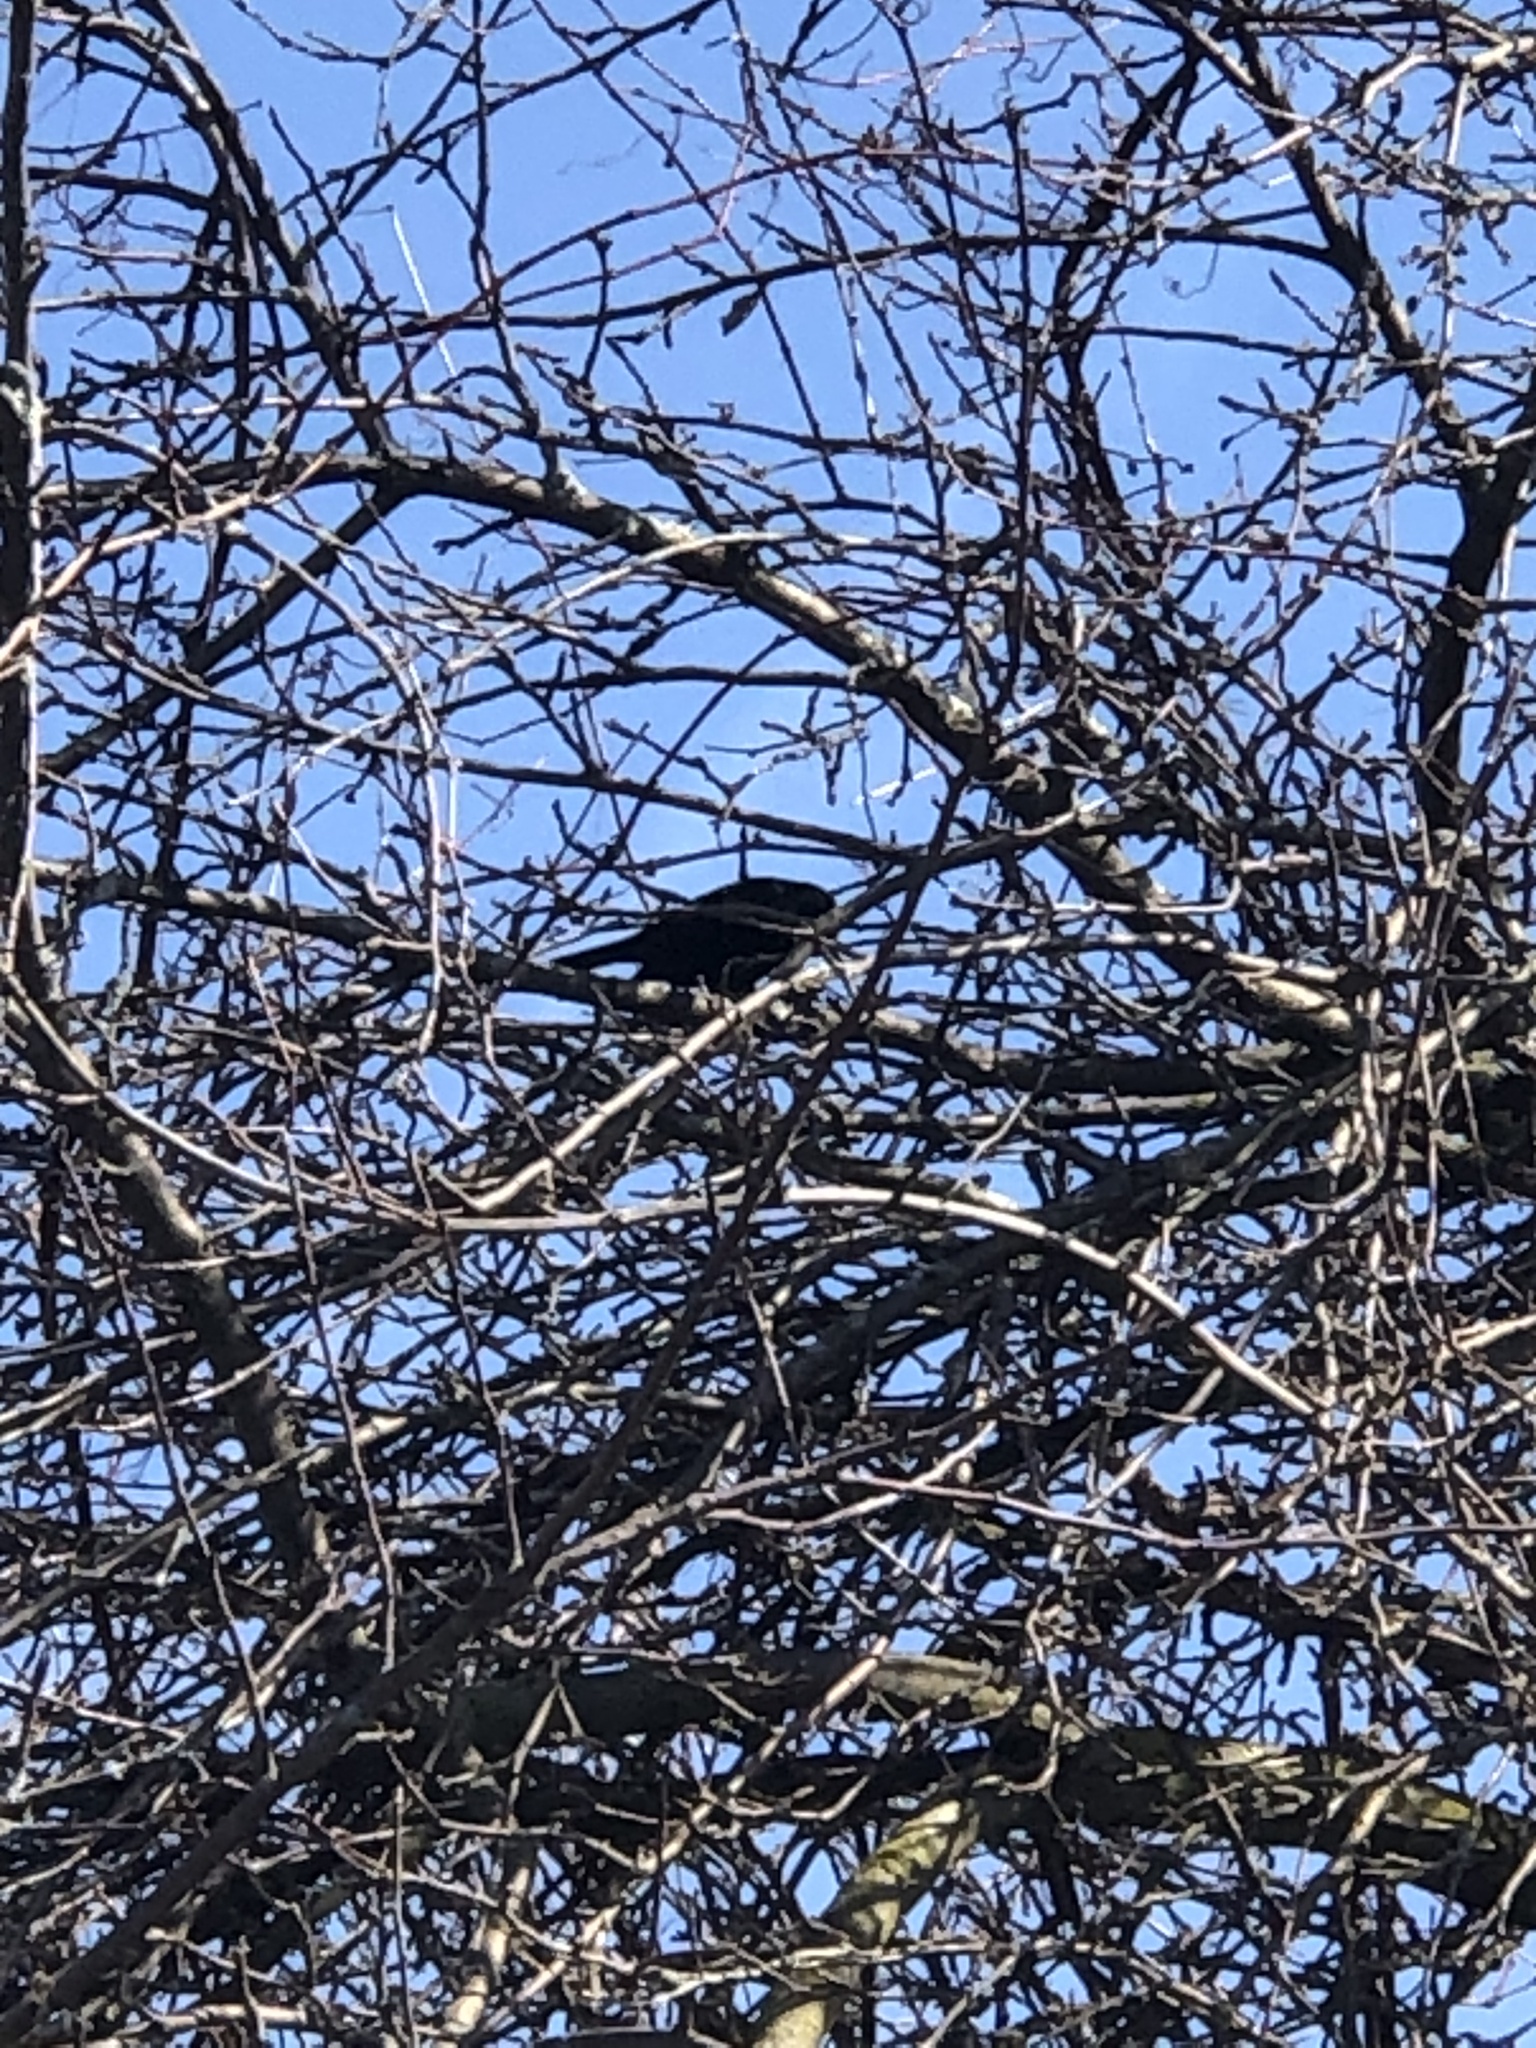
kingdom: Animalia
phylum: Chordata
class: Aves
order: Passeriformes
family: Icteridae
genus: Agelaius
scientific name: Agelaius phoeniceus
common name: Red-winged blackbird
